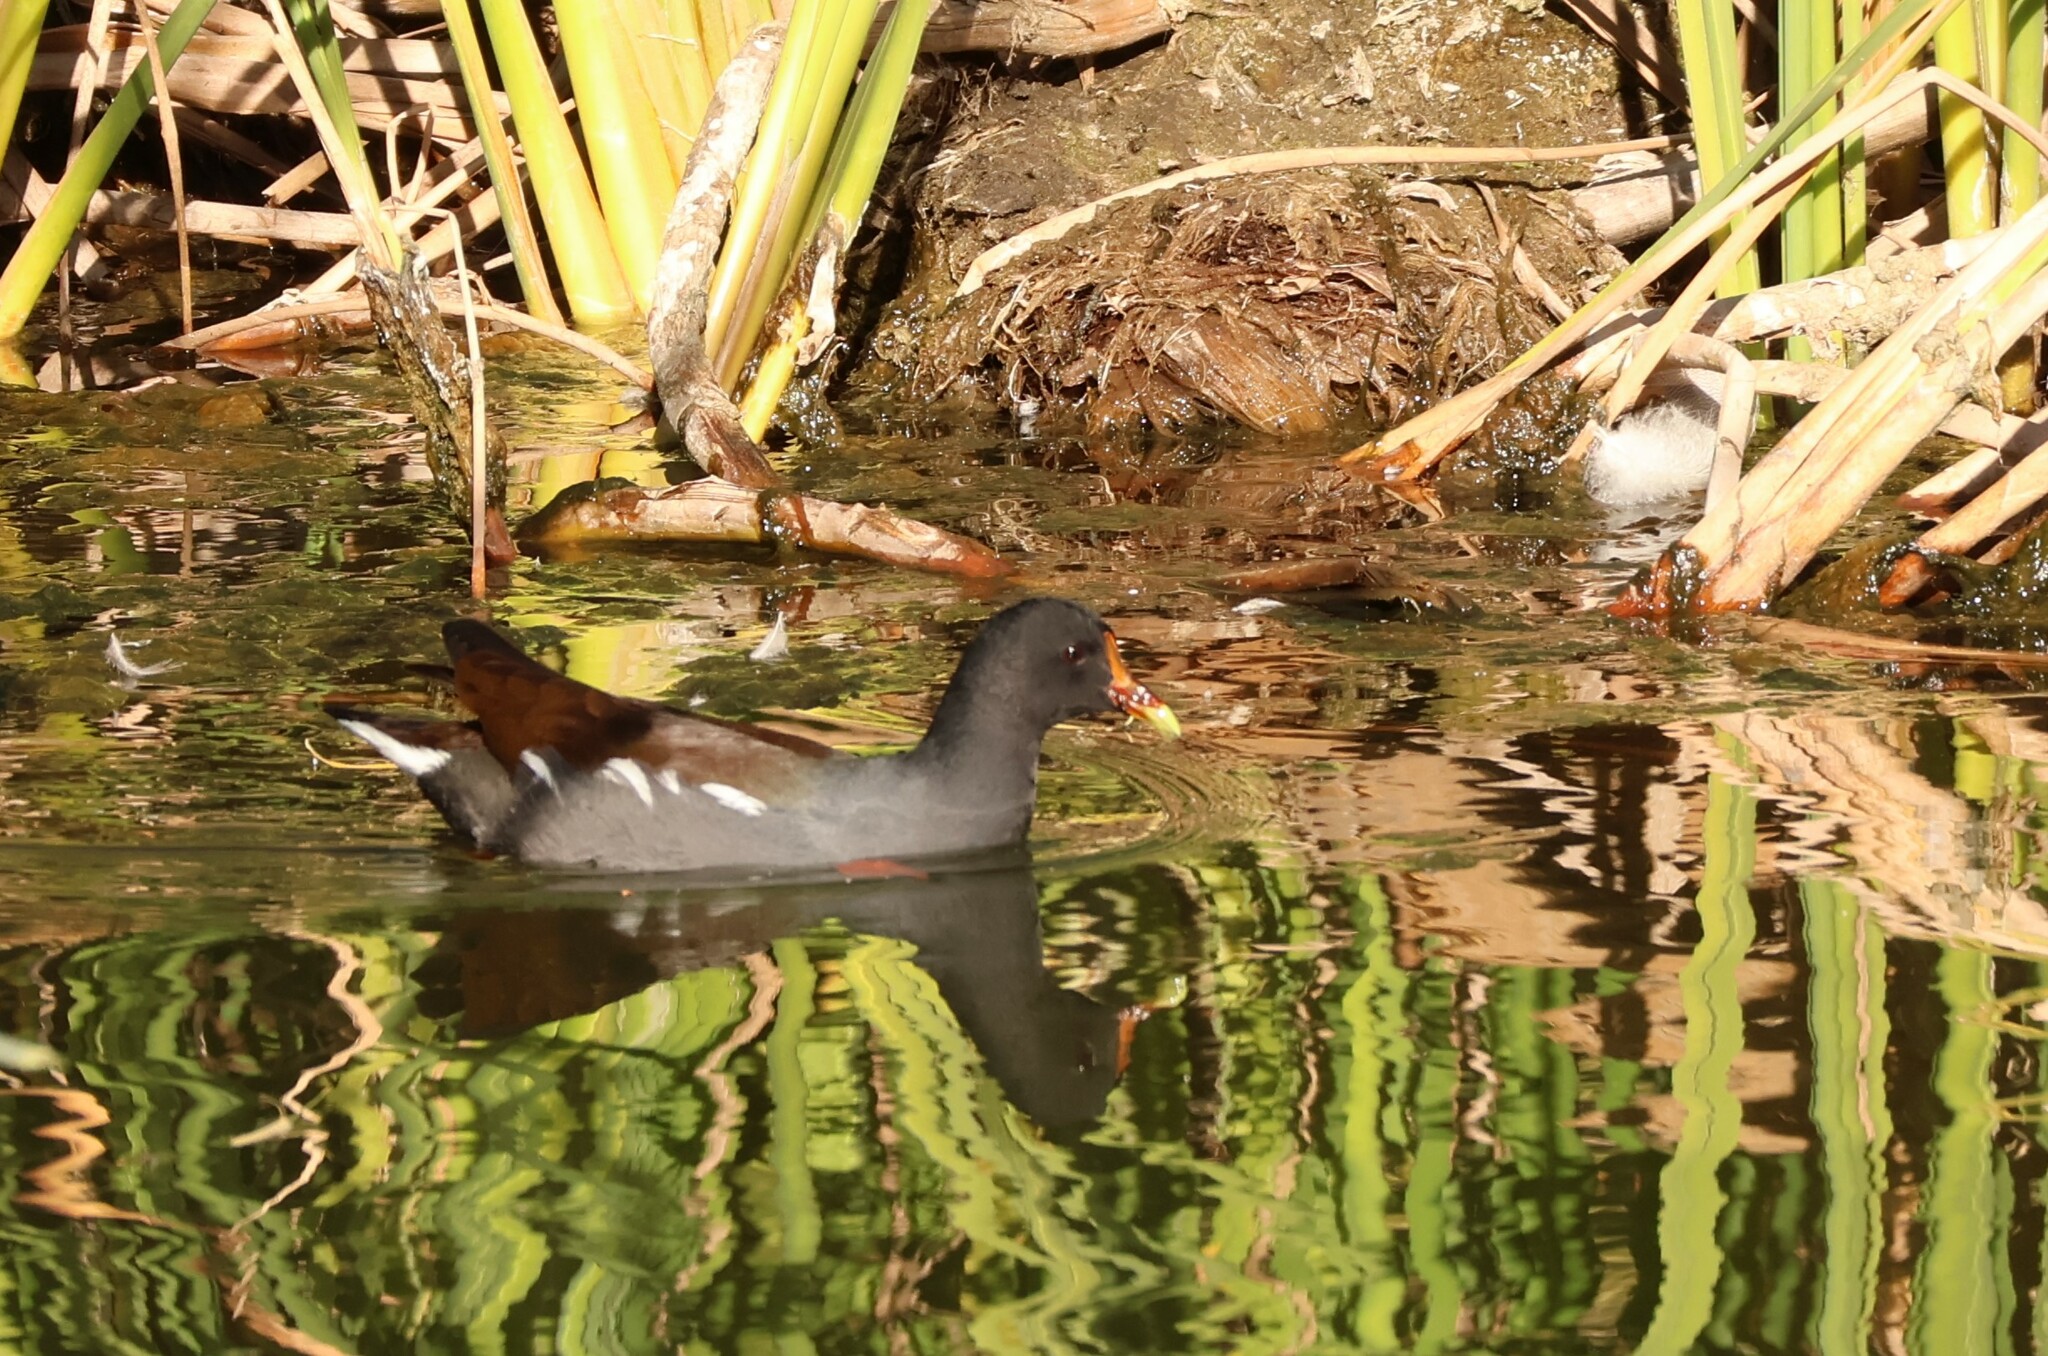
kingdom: Animalia
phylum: Chordata
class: Aves
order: Gruiformes
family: Rallidae
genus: Gallinula
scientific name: Gallinula chloropus
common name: Common moorhen
